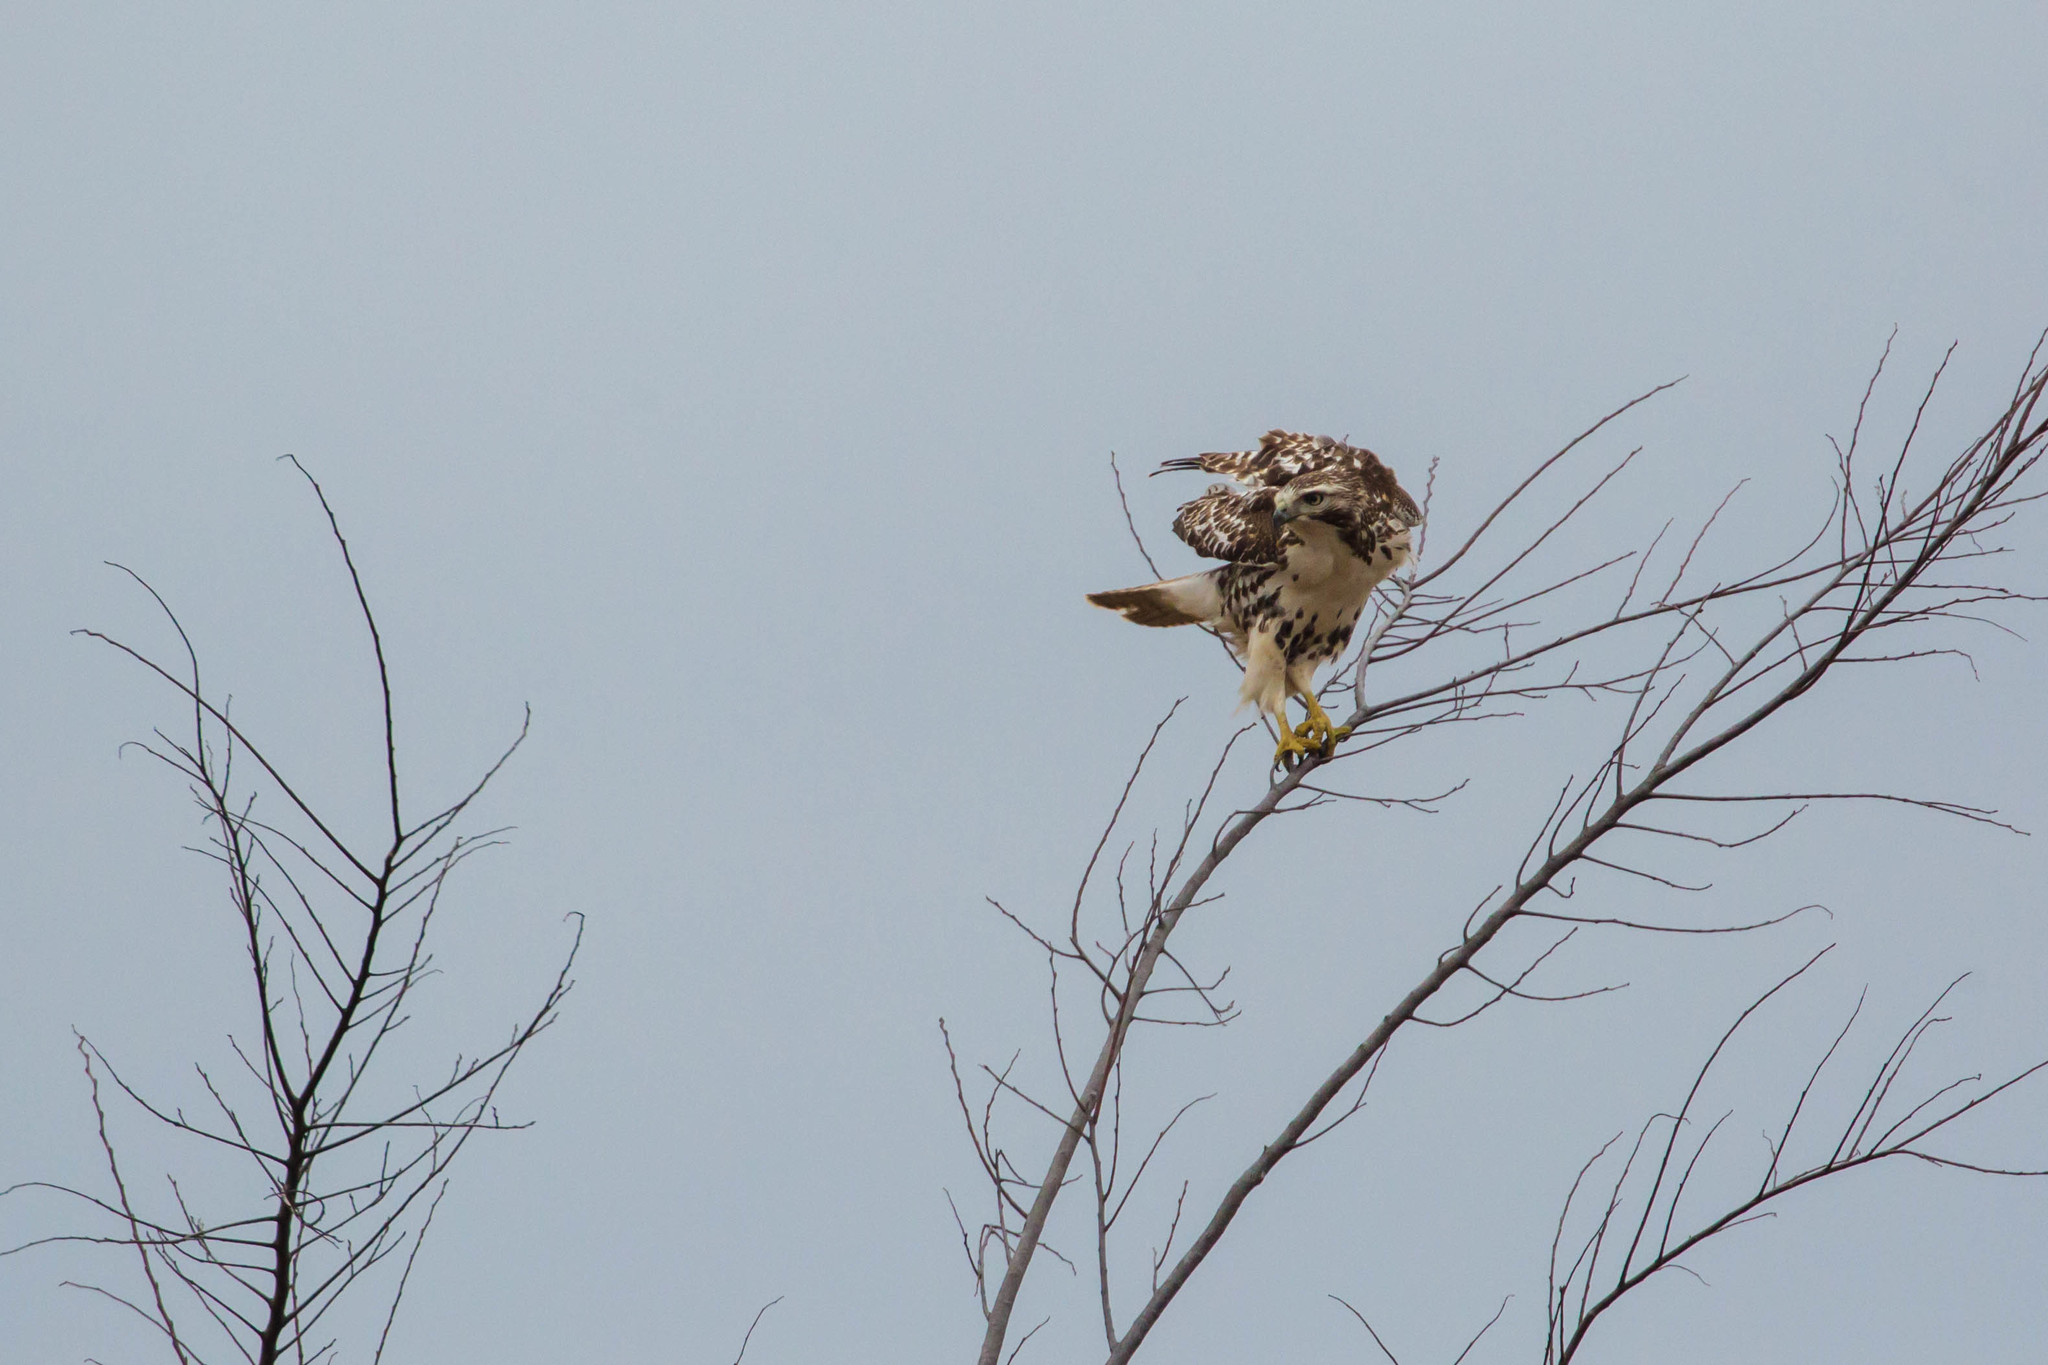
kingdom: Animalia
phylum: Chordata
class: Aves
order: Accipitriformes
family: Accipitridae
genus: Buteo
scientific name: Buteo jamaicensis
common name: Red-tailed hawk
